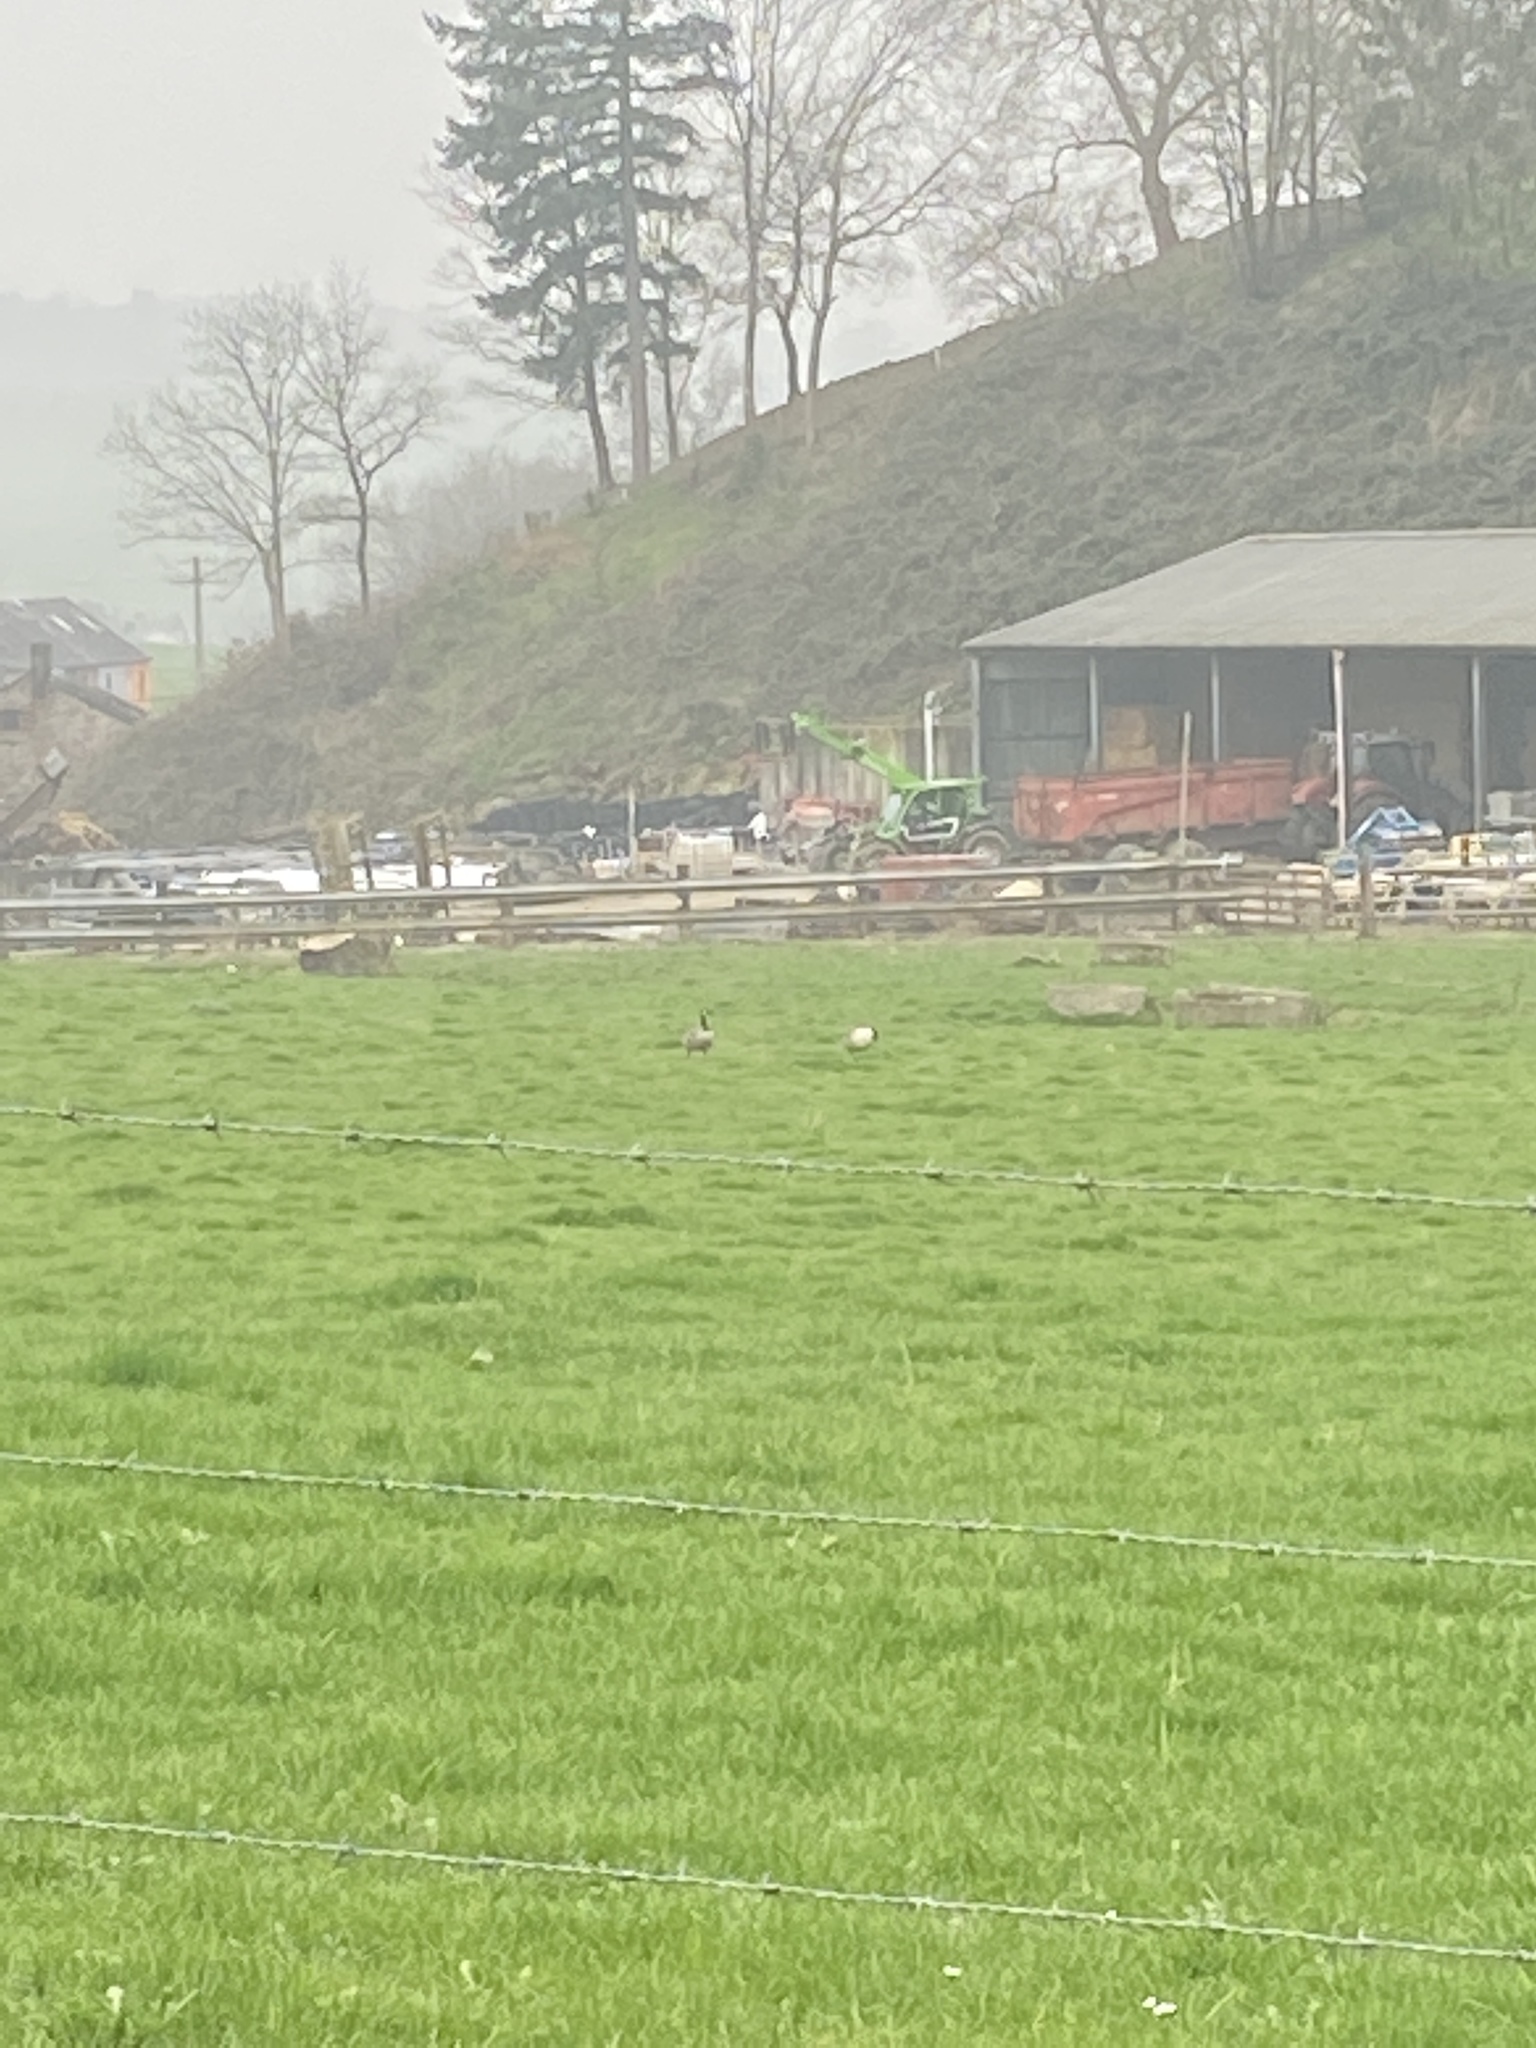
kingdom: Animalia
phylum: Chordata
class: Aves
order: Anseriformes
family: Anatidae
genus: Branta
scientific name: Branta canadensis
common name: Canada goose
